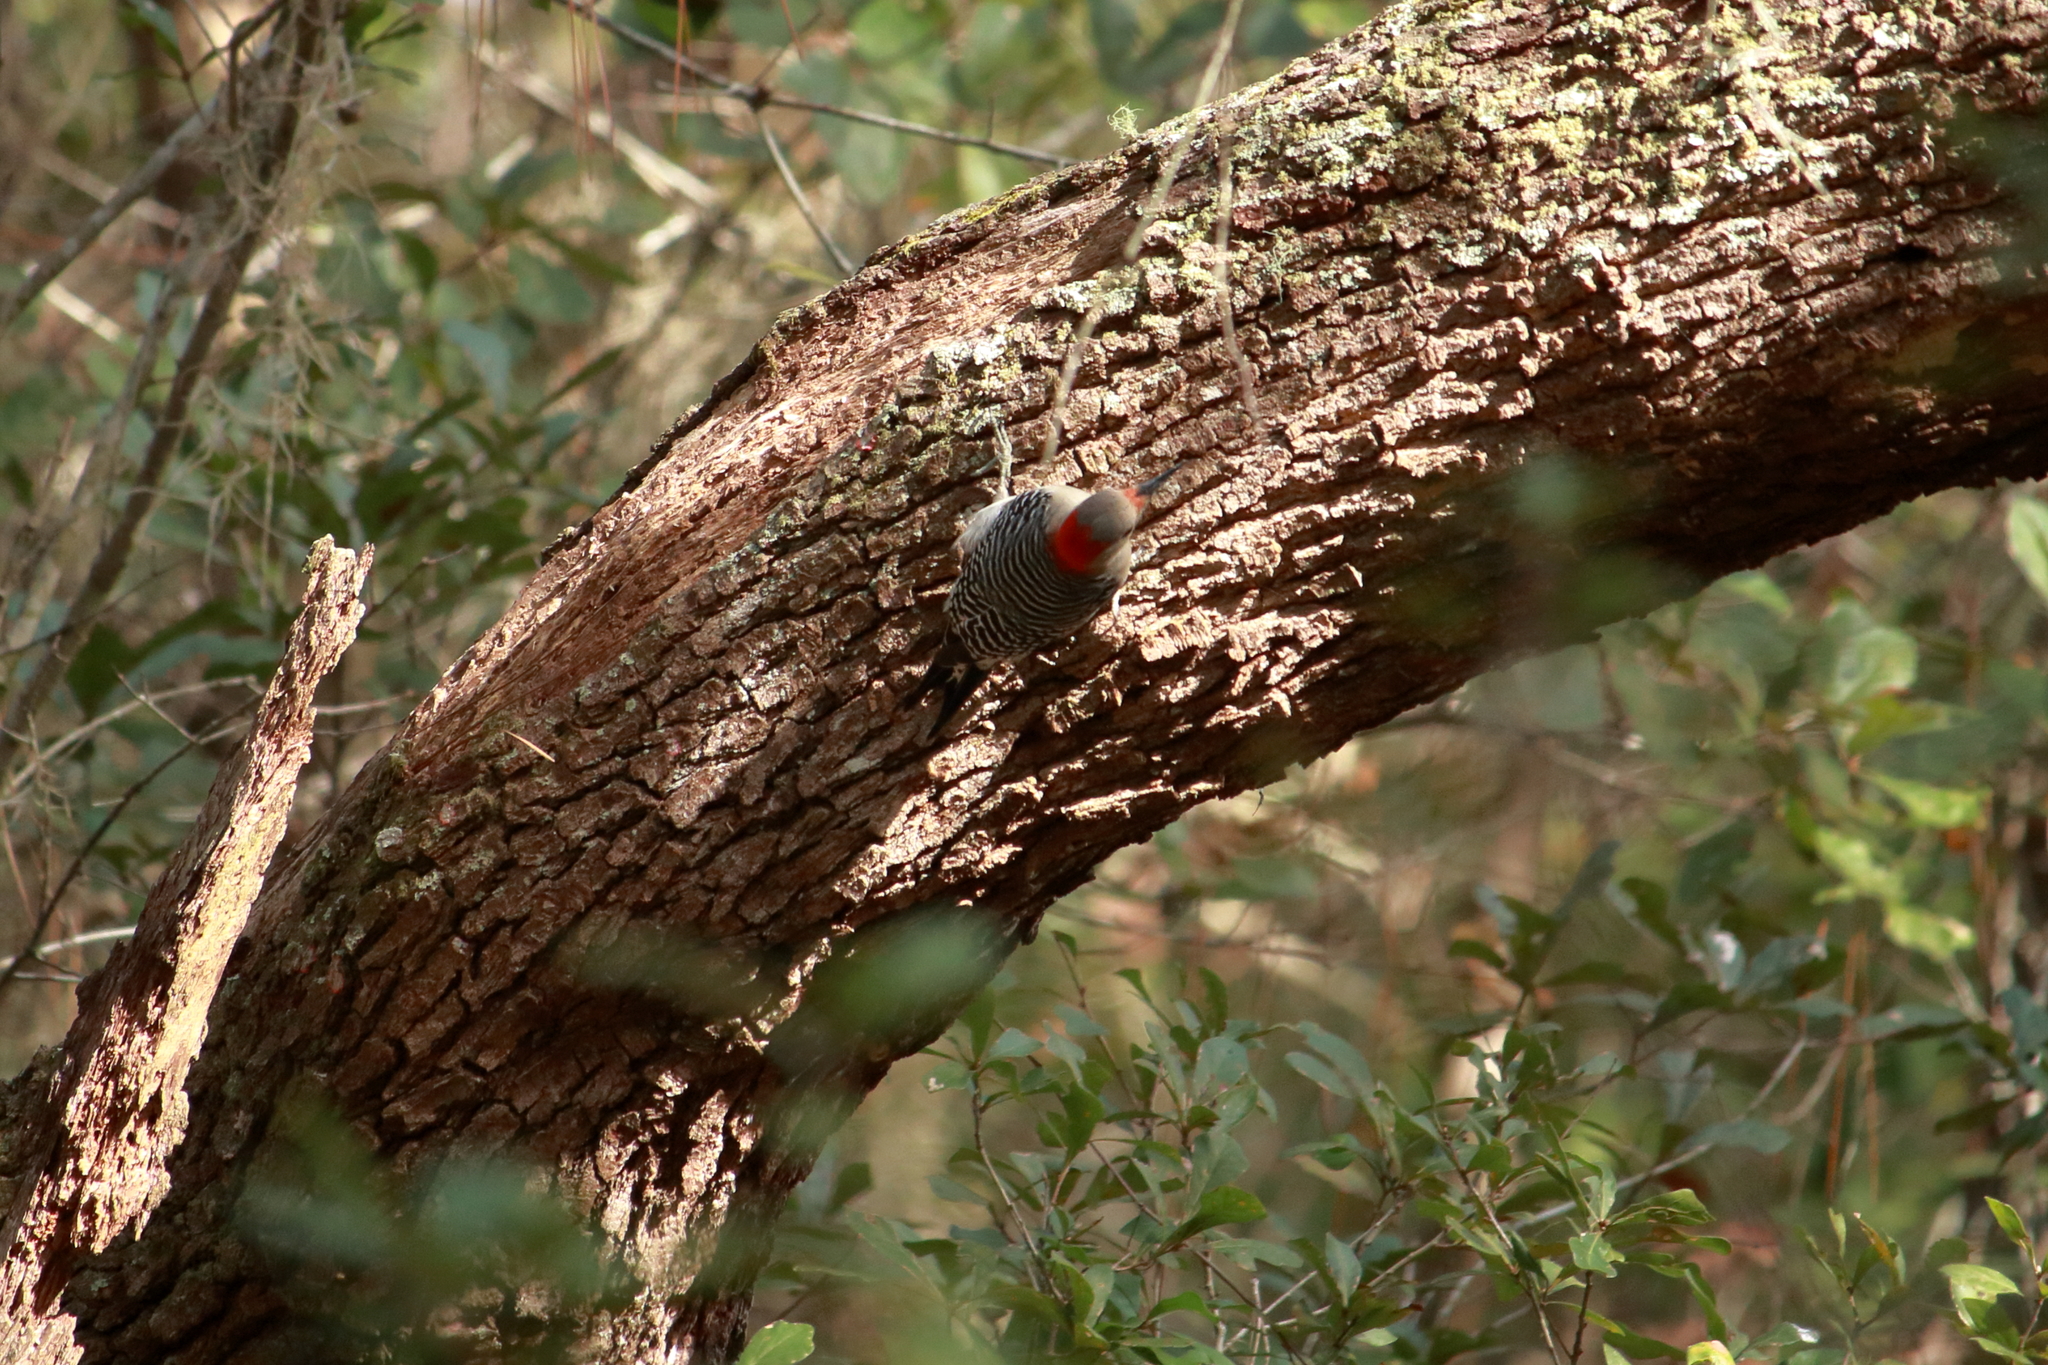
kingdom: Animalia
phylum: Chordata
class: Aves
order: Piciformes
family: Picidae
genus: Melanerpes
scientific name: Melanerpes carolinus
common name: Red-bellied woodpecker
